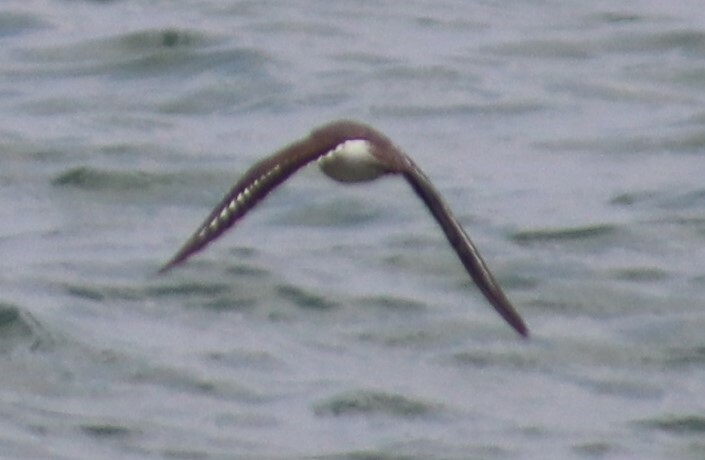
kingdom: Animalia
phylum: Chordata
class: Aves
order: Charadriiformes
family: Scolopacidae
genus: Actitis
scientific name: Actitis macularius
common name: Spotted sandpiper
